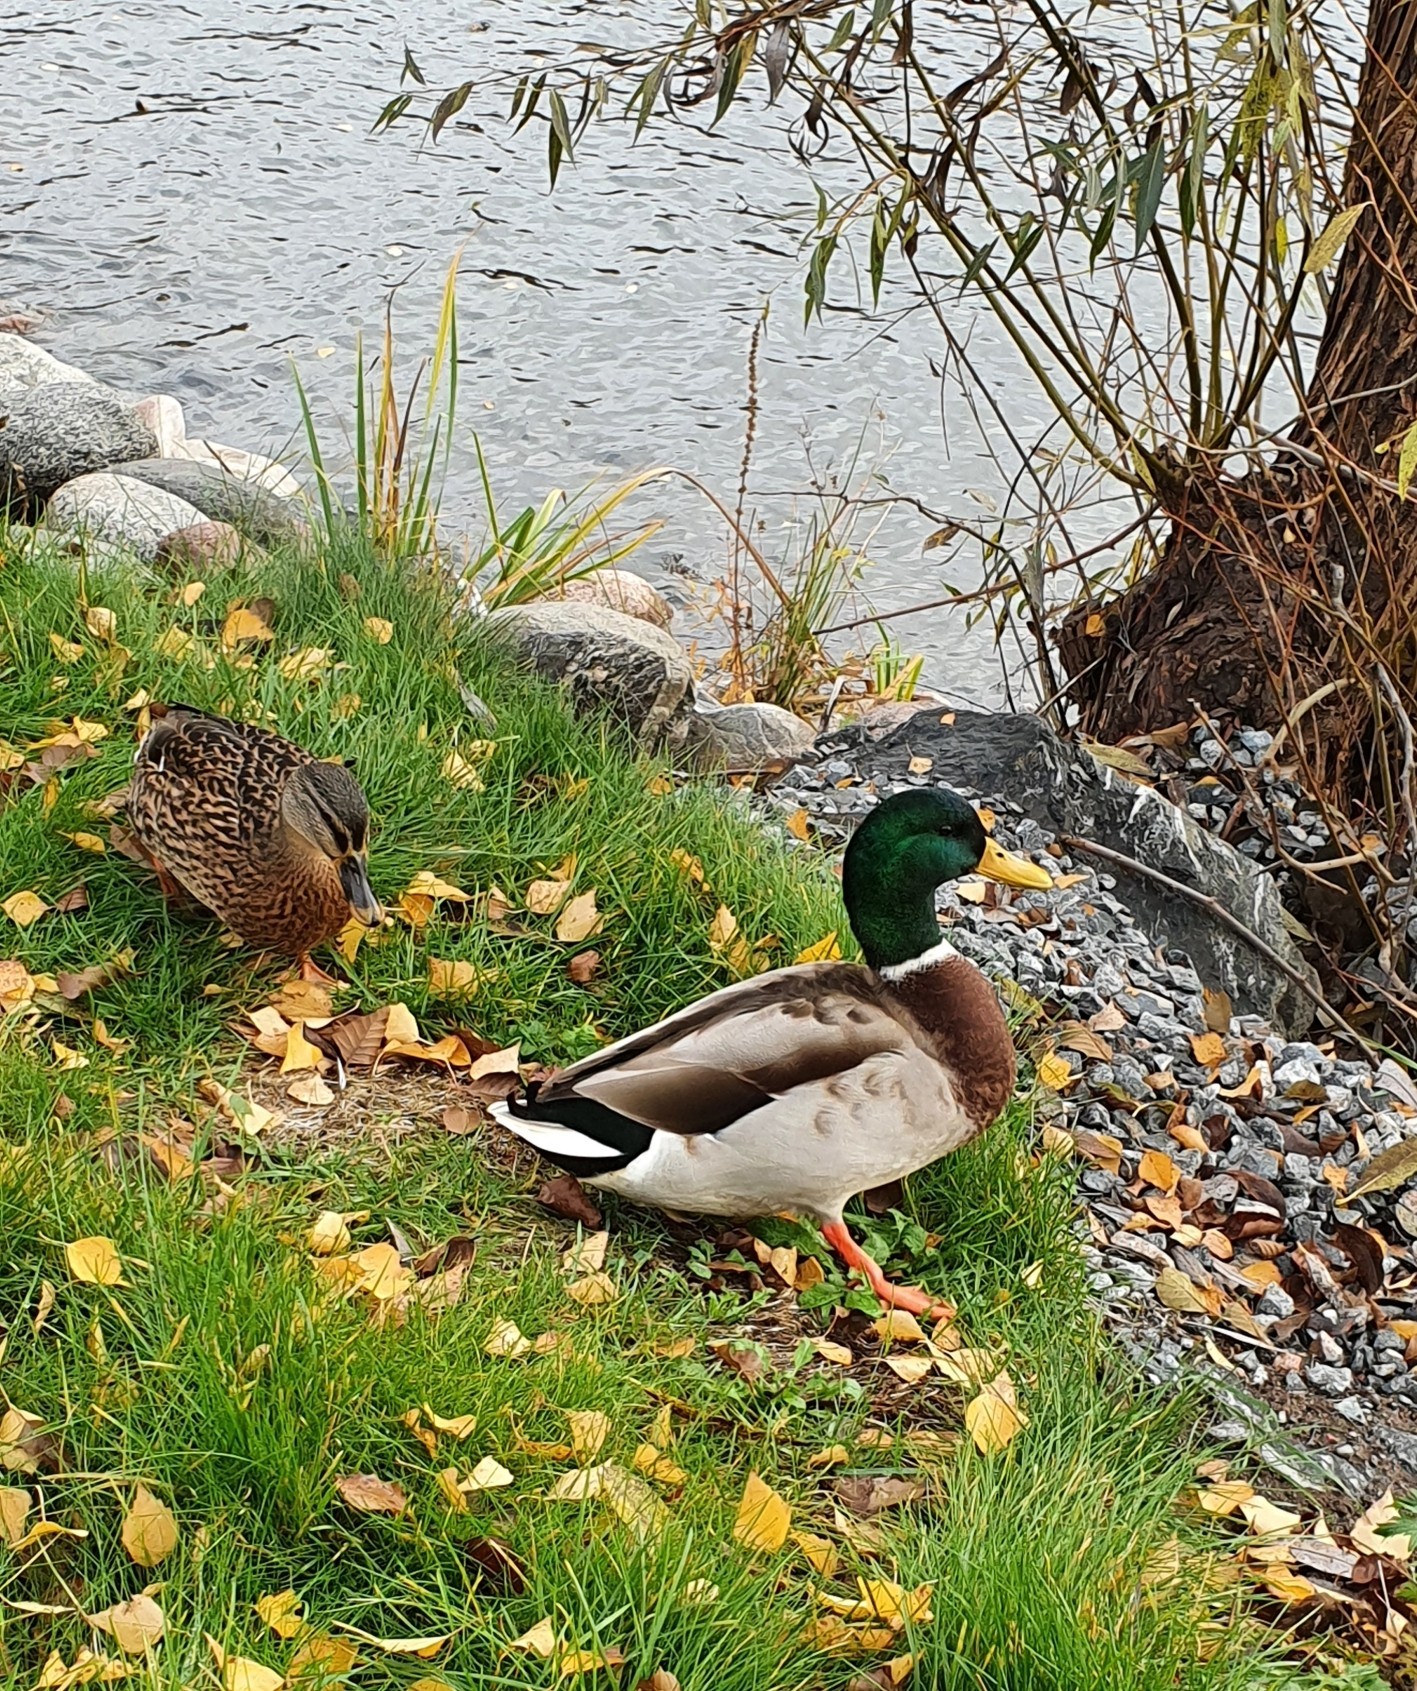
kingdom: Animalia
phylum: Chordata
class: Aves
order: Anseriformes
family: Anatidae
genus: Anas
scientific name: Anas platyrhynchos
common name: Mallard
